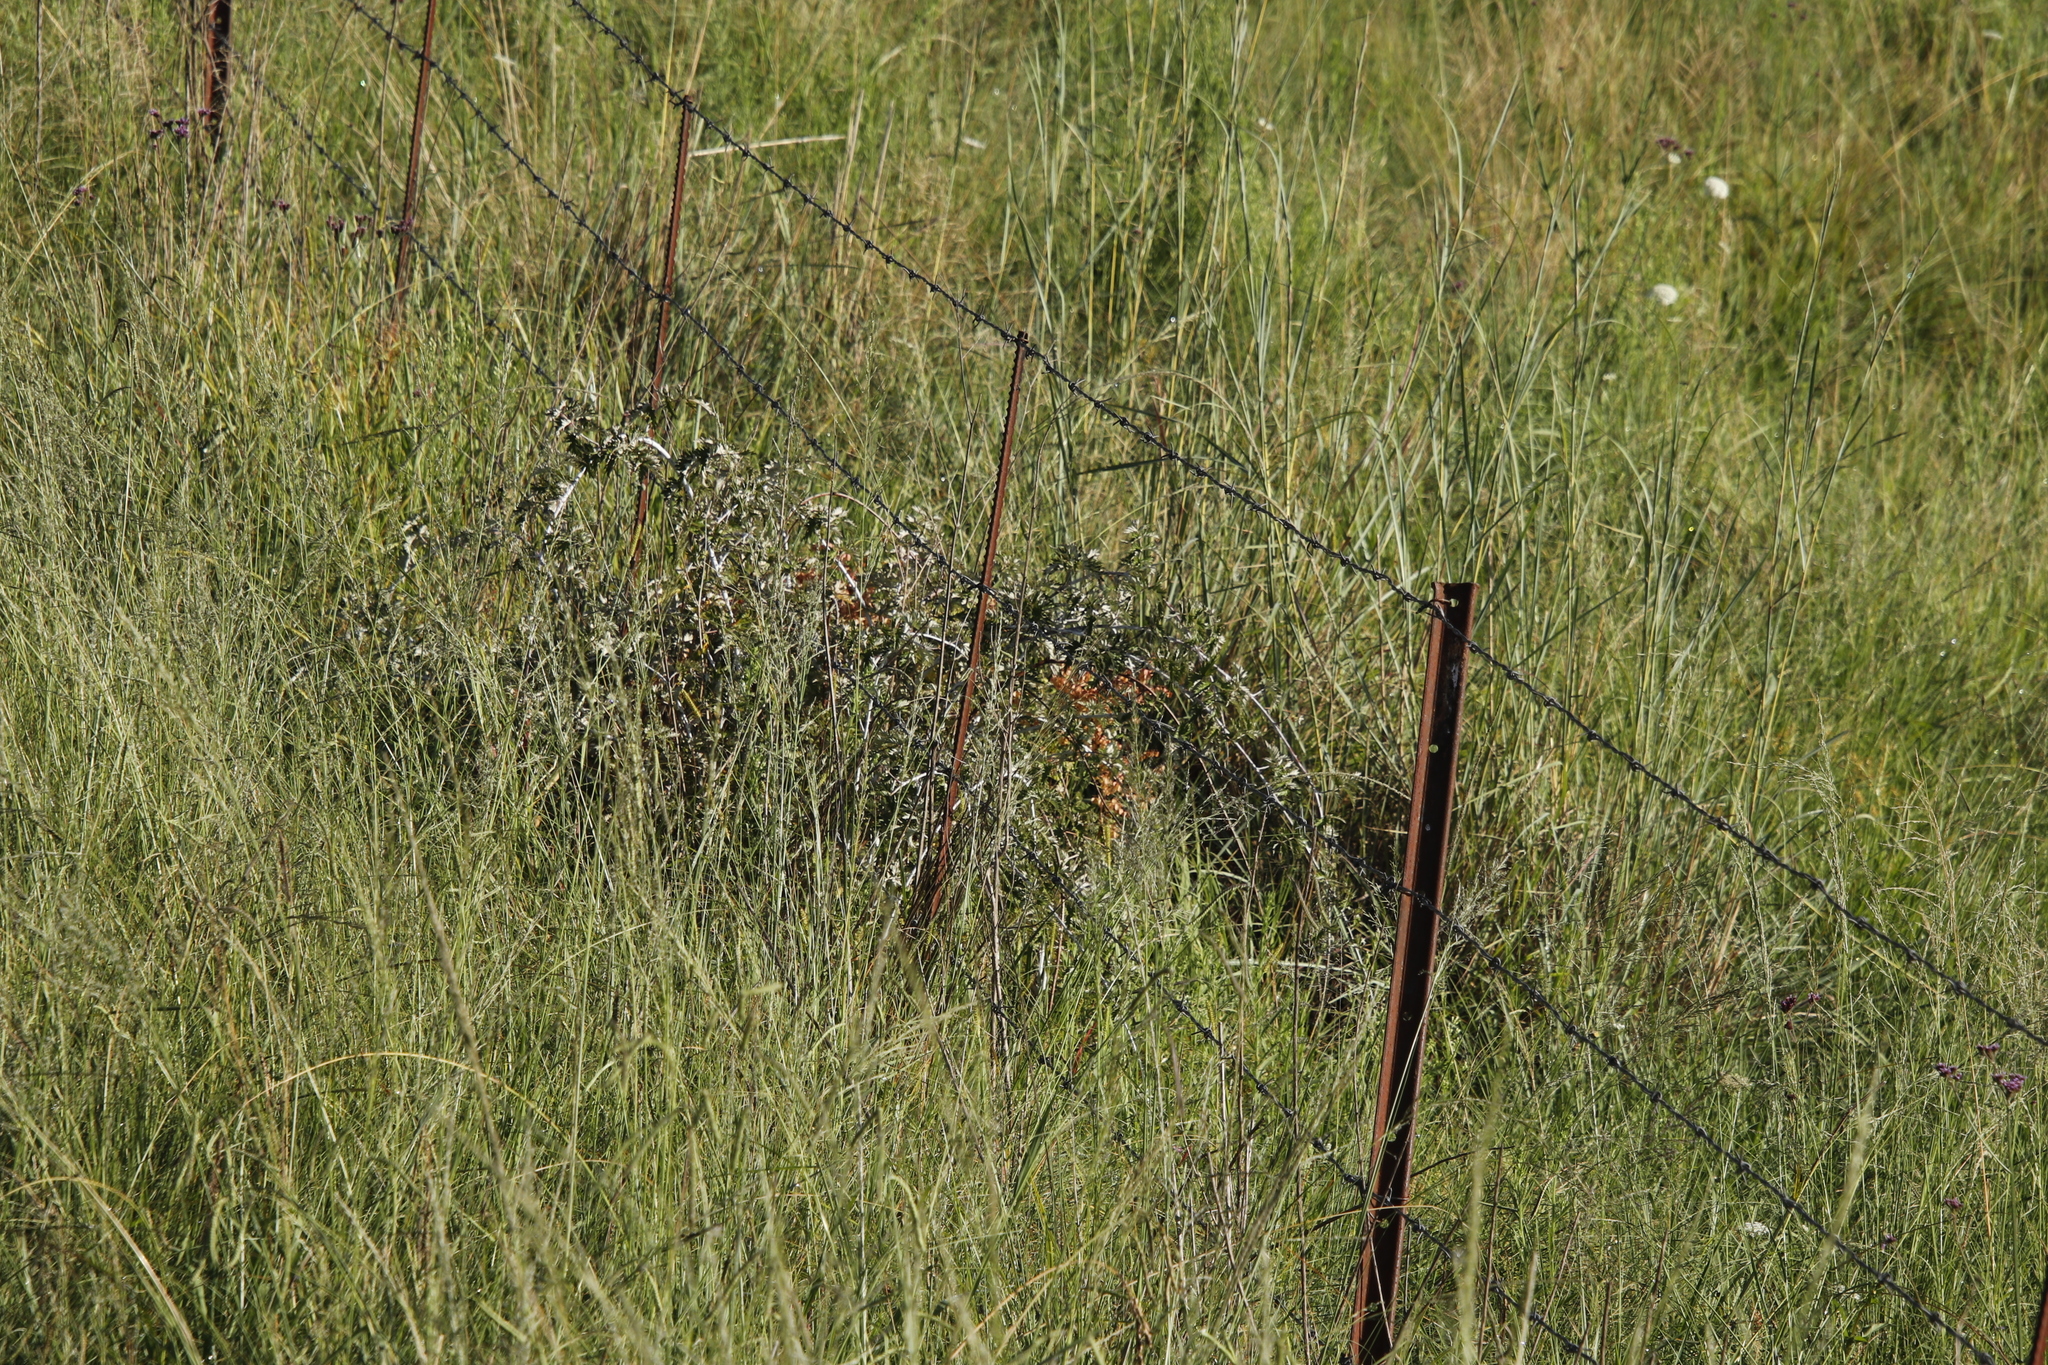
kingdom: Plantae
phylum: Tracheophyta
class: Magnoliopsida
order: Rosales
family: Rosaceae
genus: Rubus
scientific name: Rubus ludwigii
